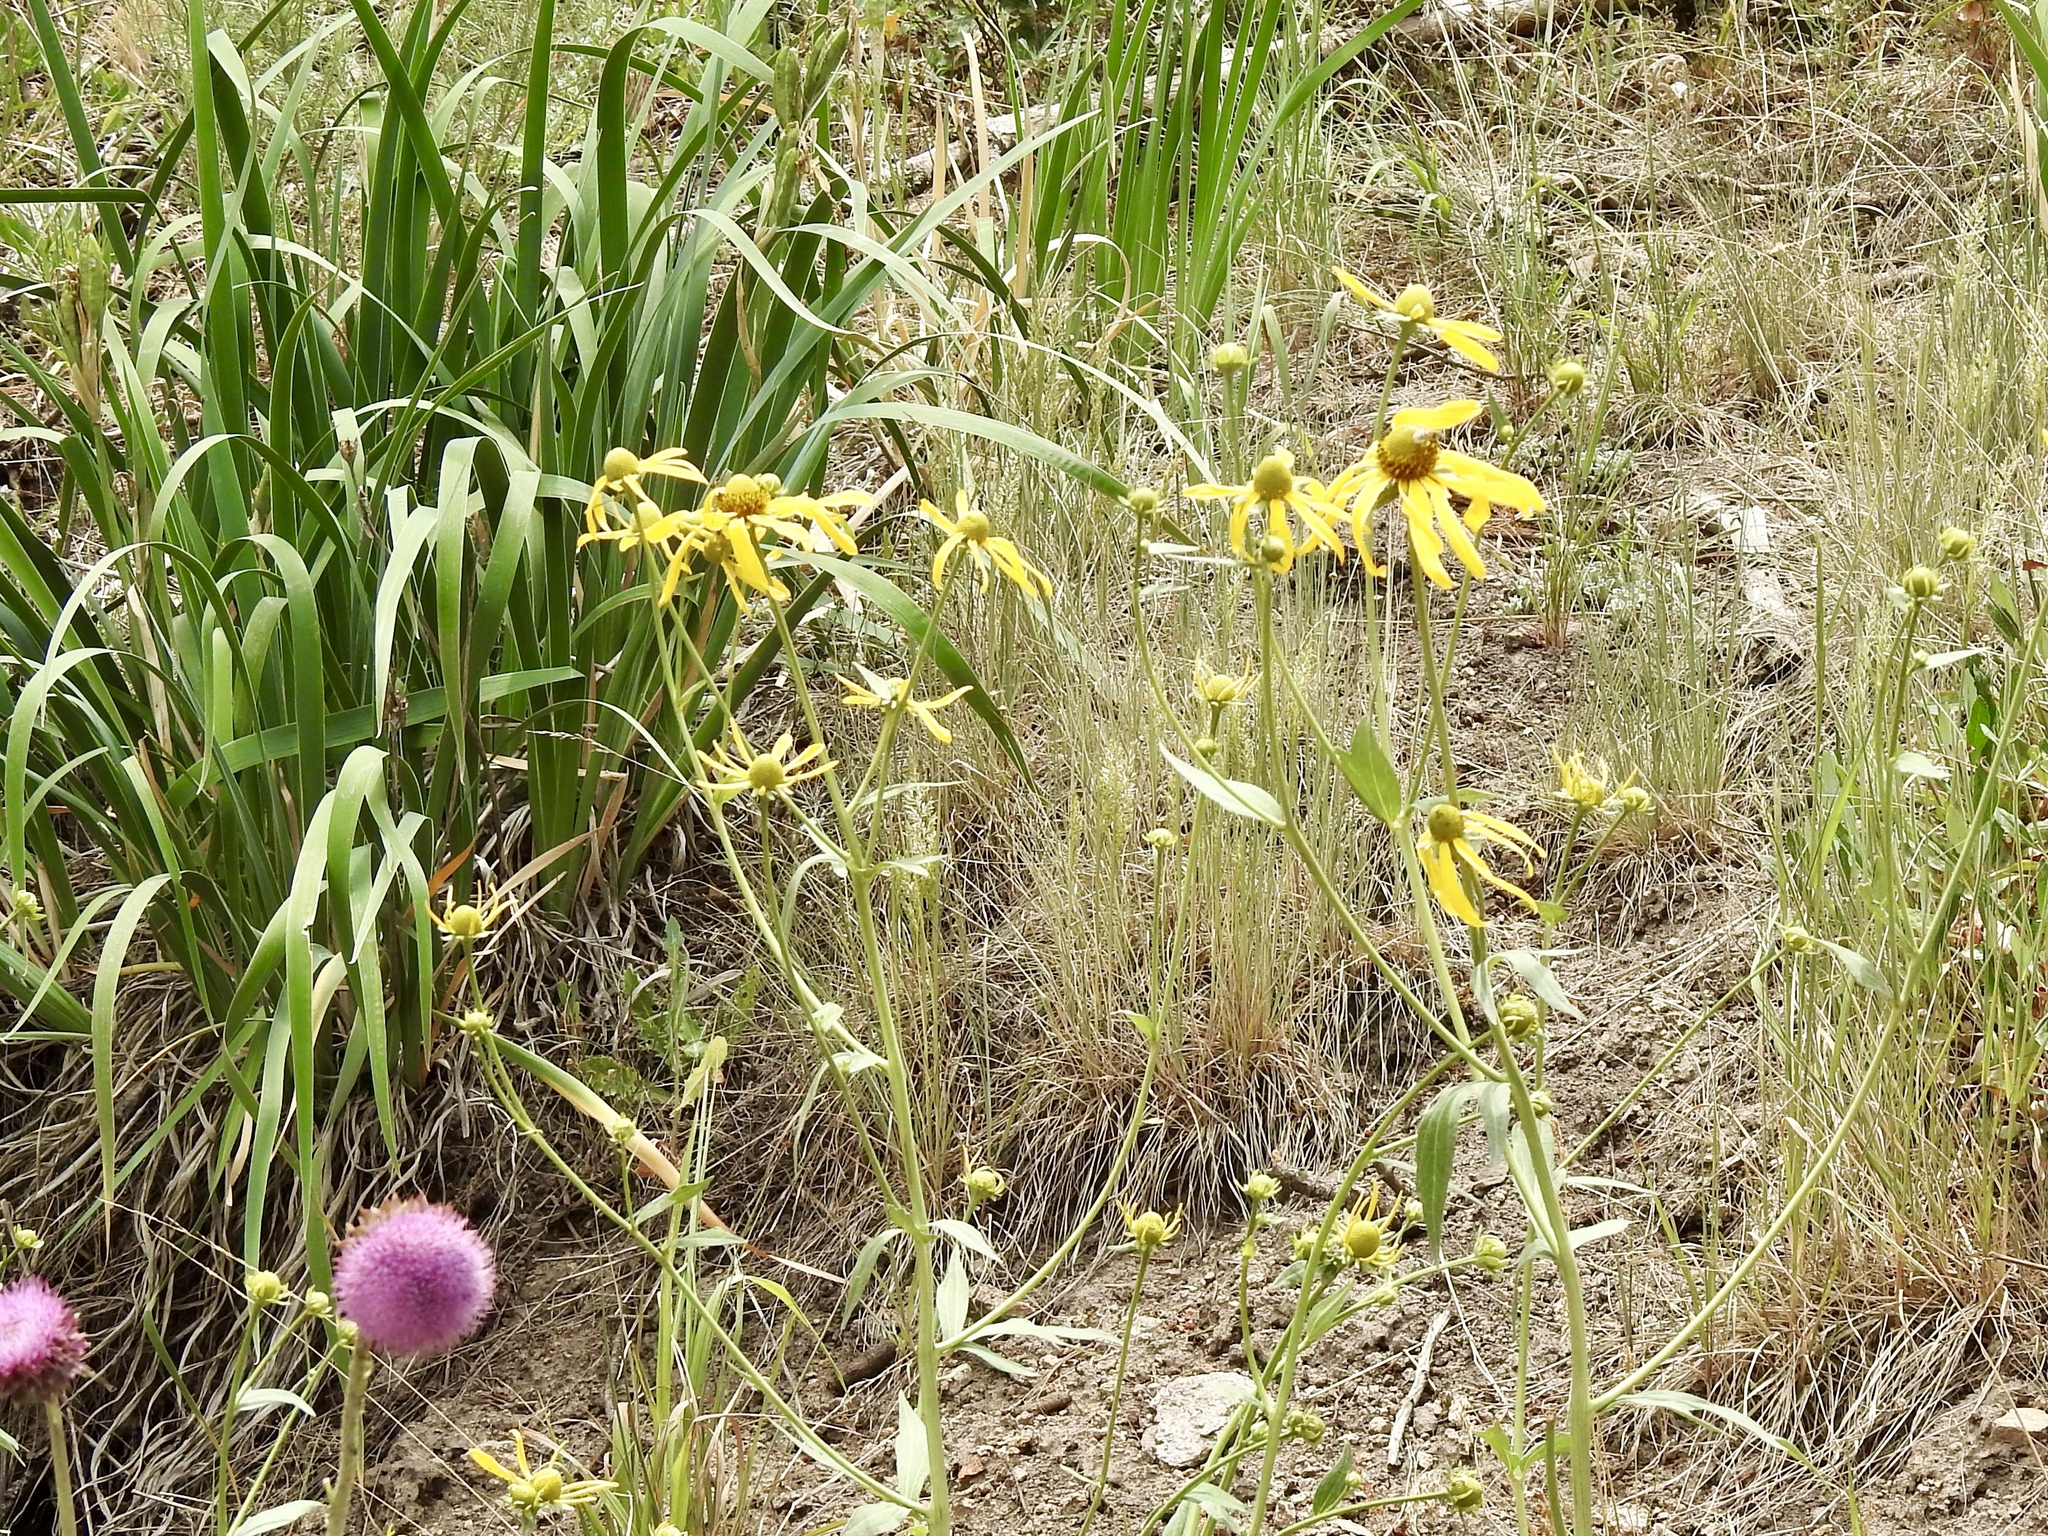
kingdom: Plantae
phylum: Tracheophyta
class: Magnoliopsida
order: Asterales
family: Asteraceae
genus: Rudbeckia
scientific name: Rudbeckia laciniata
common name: Coneflower
